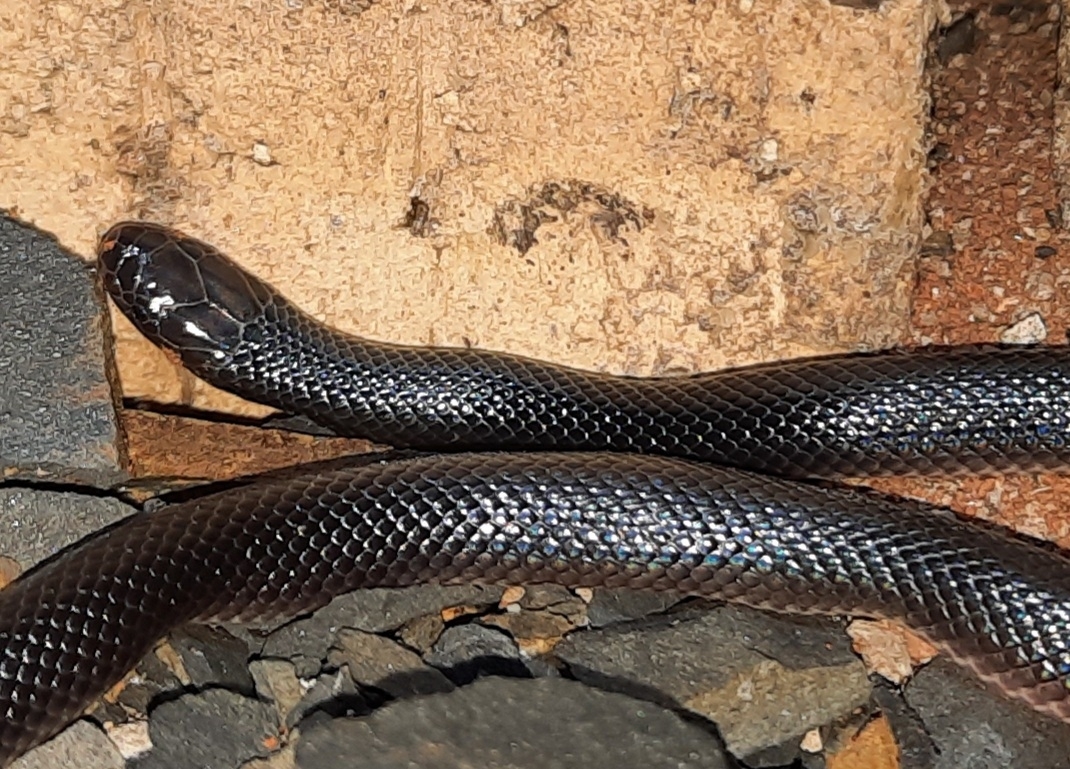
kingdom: Animalia
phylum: Chordata
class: Squamata
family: Atractaspididae
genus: Atractaspis
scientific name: Atractaspis bibronii
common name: Bibron's burrowing asp
